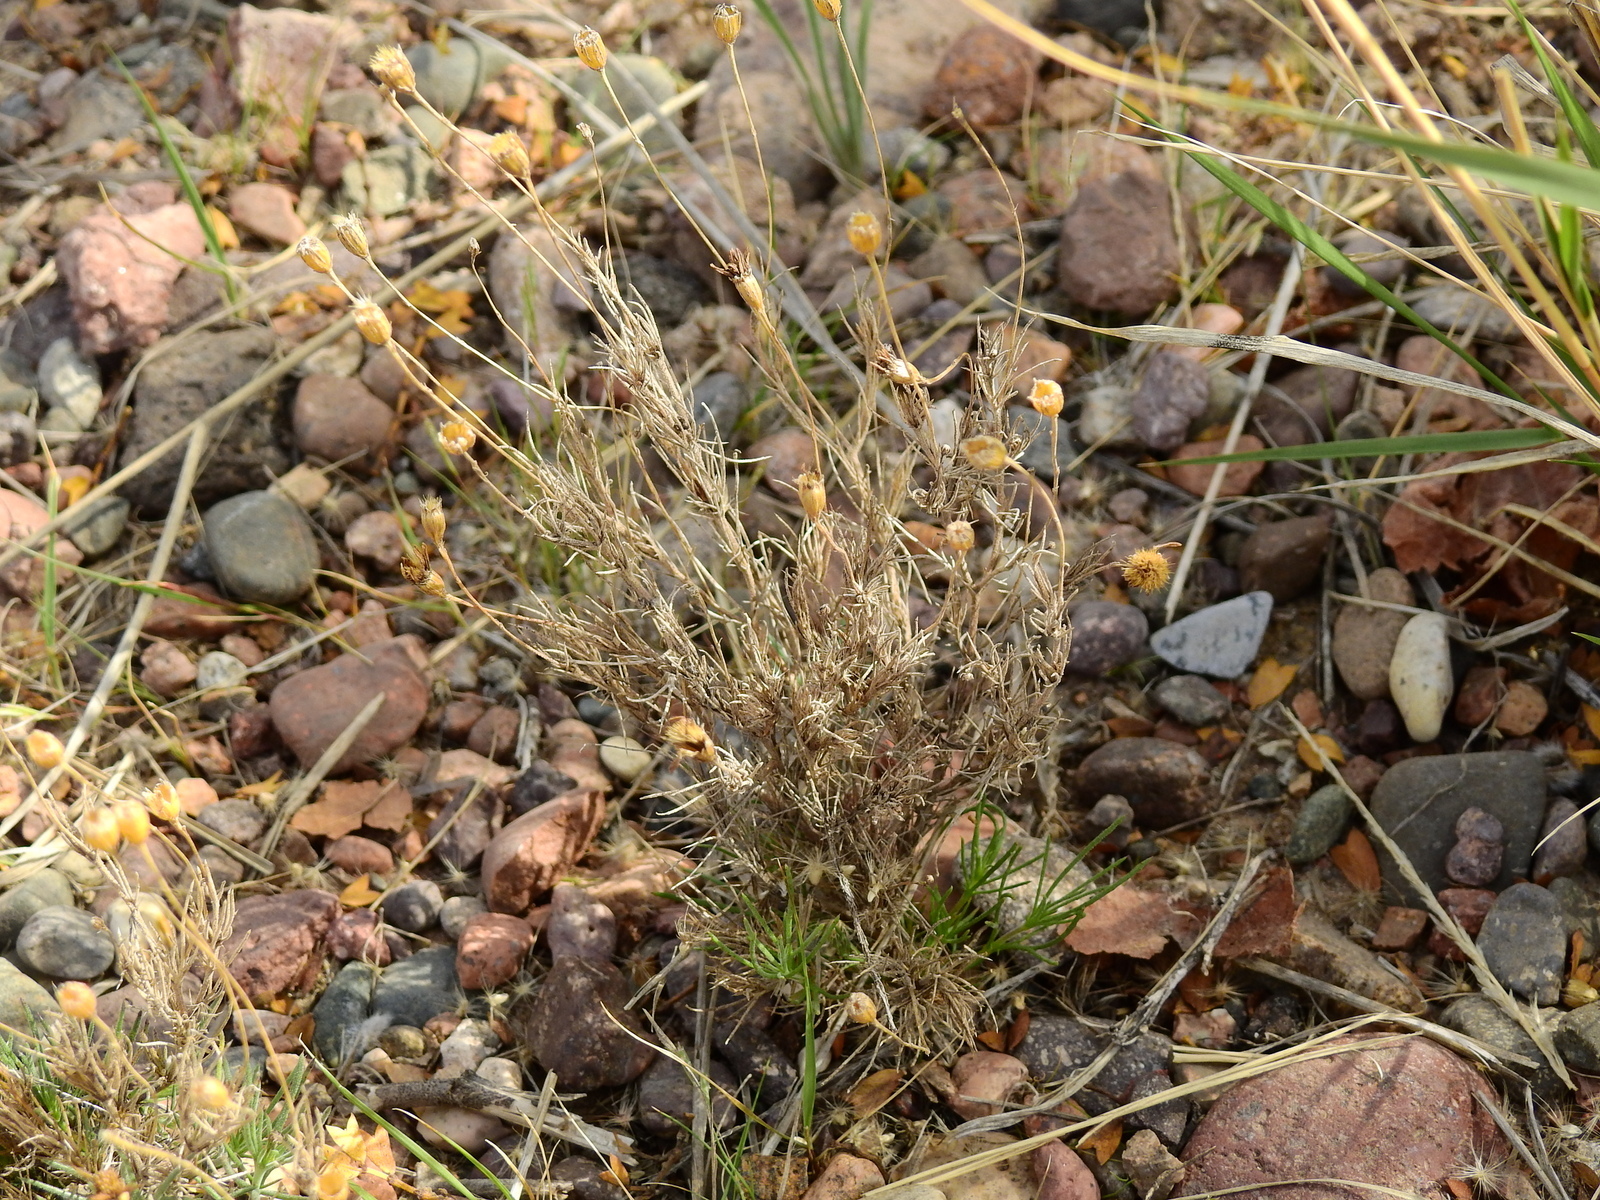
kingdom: Plantae
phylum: Tracheophyta
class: Magnoliopsida
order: Asterales
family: Asteraceae
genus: Thymophylla
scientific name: Thymophylla pentachaeta
